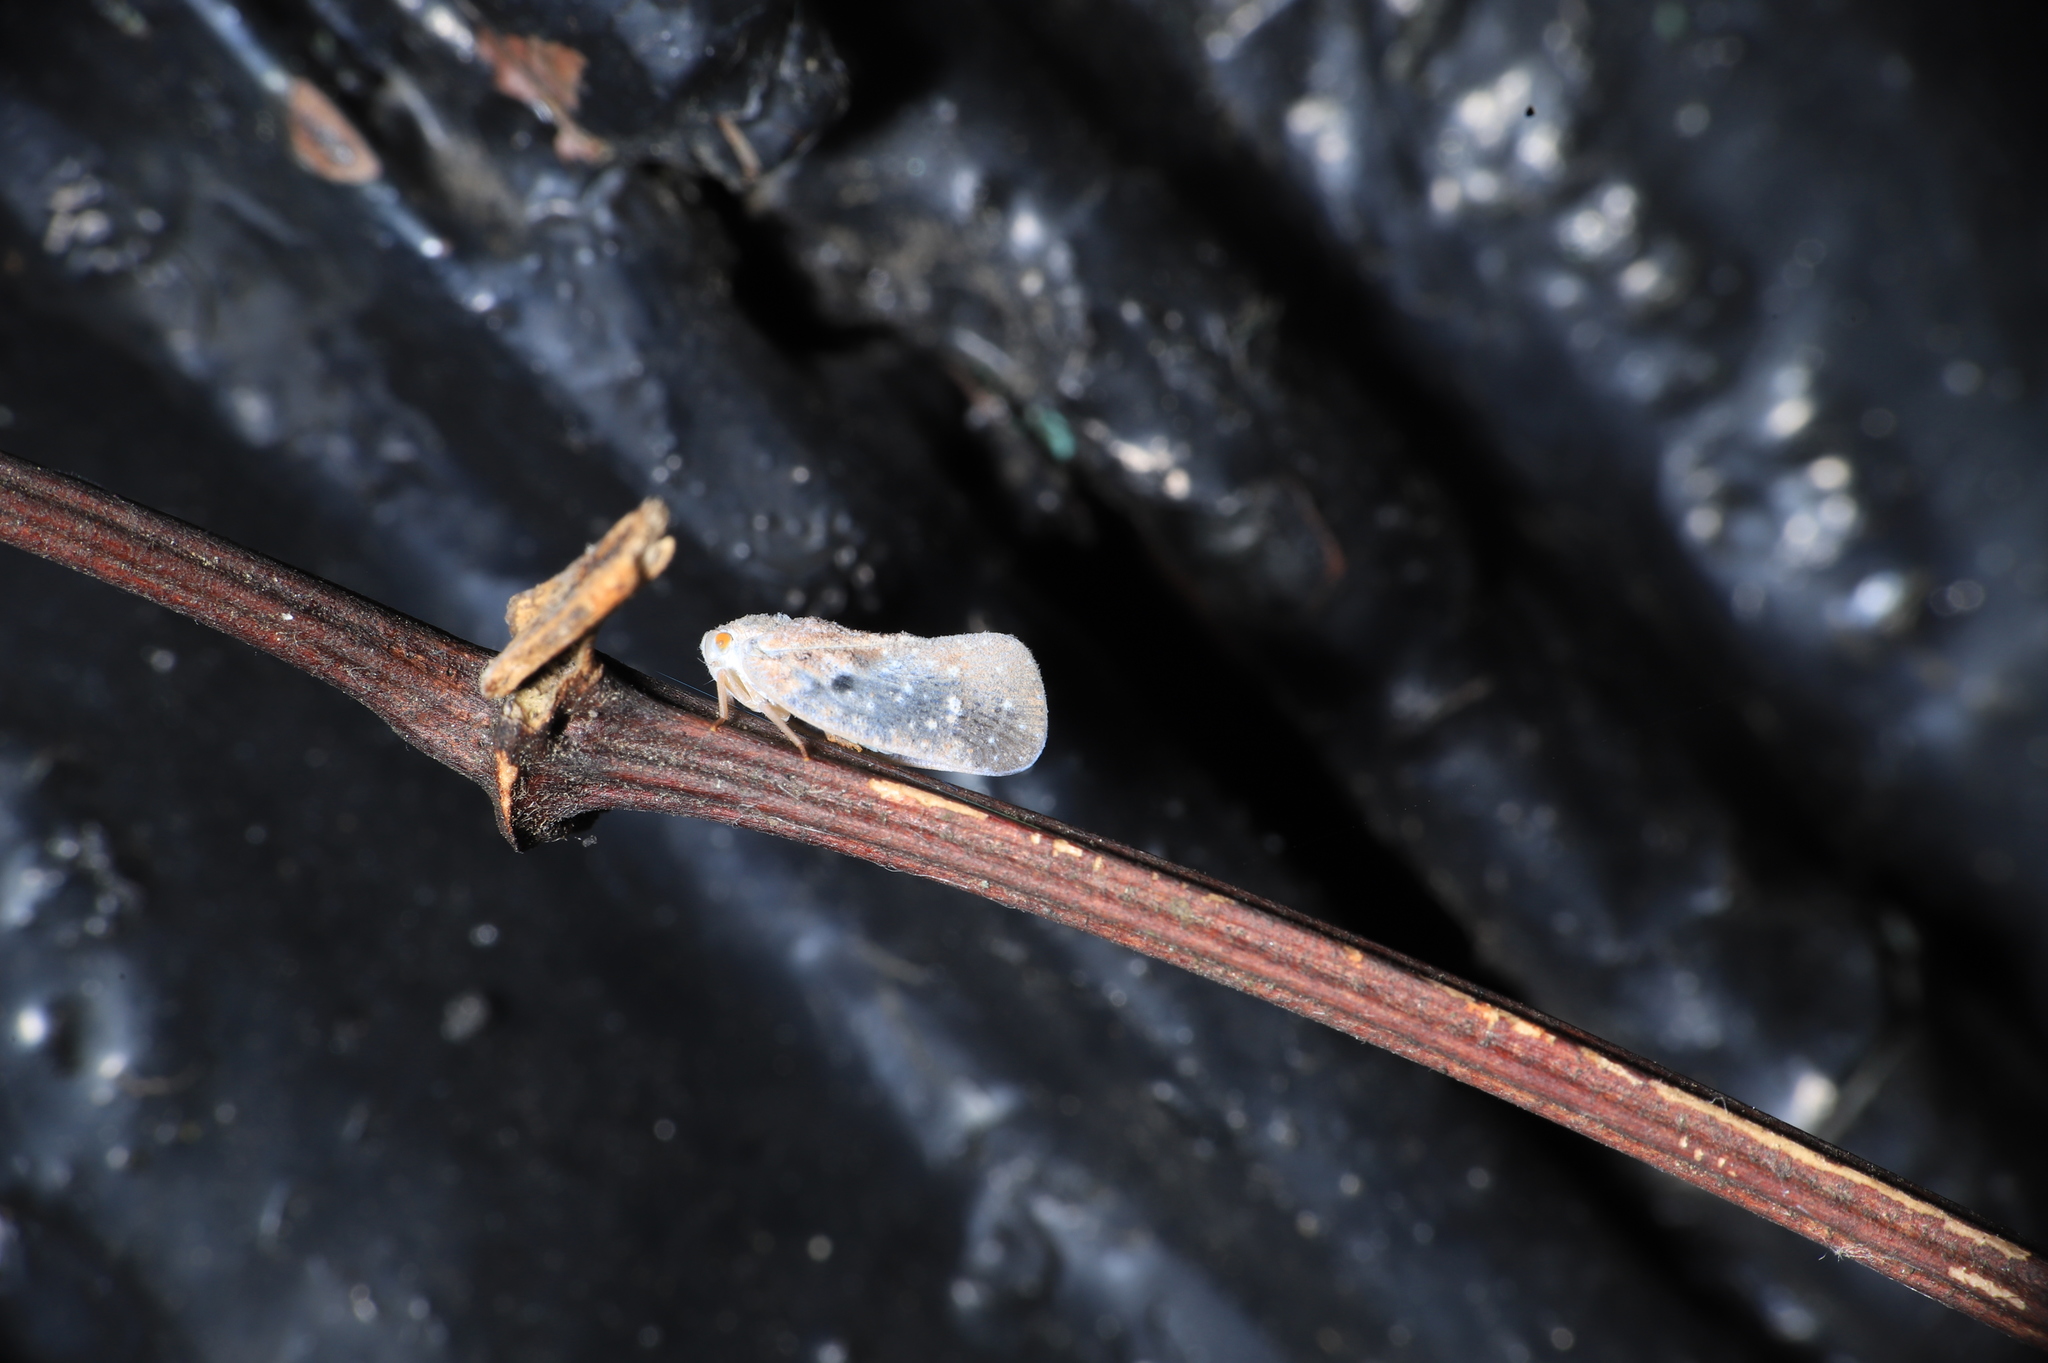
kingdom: Animalia
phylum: Arthropoda
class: Insecta
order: Hemiptera
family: Flatidae
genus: Metcalfa
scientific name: Metcalfa pruinosa
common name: Citrus flatid planthopper
